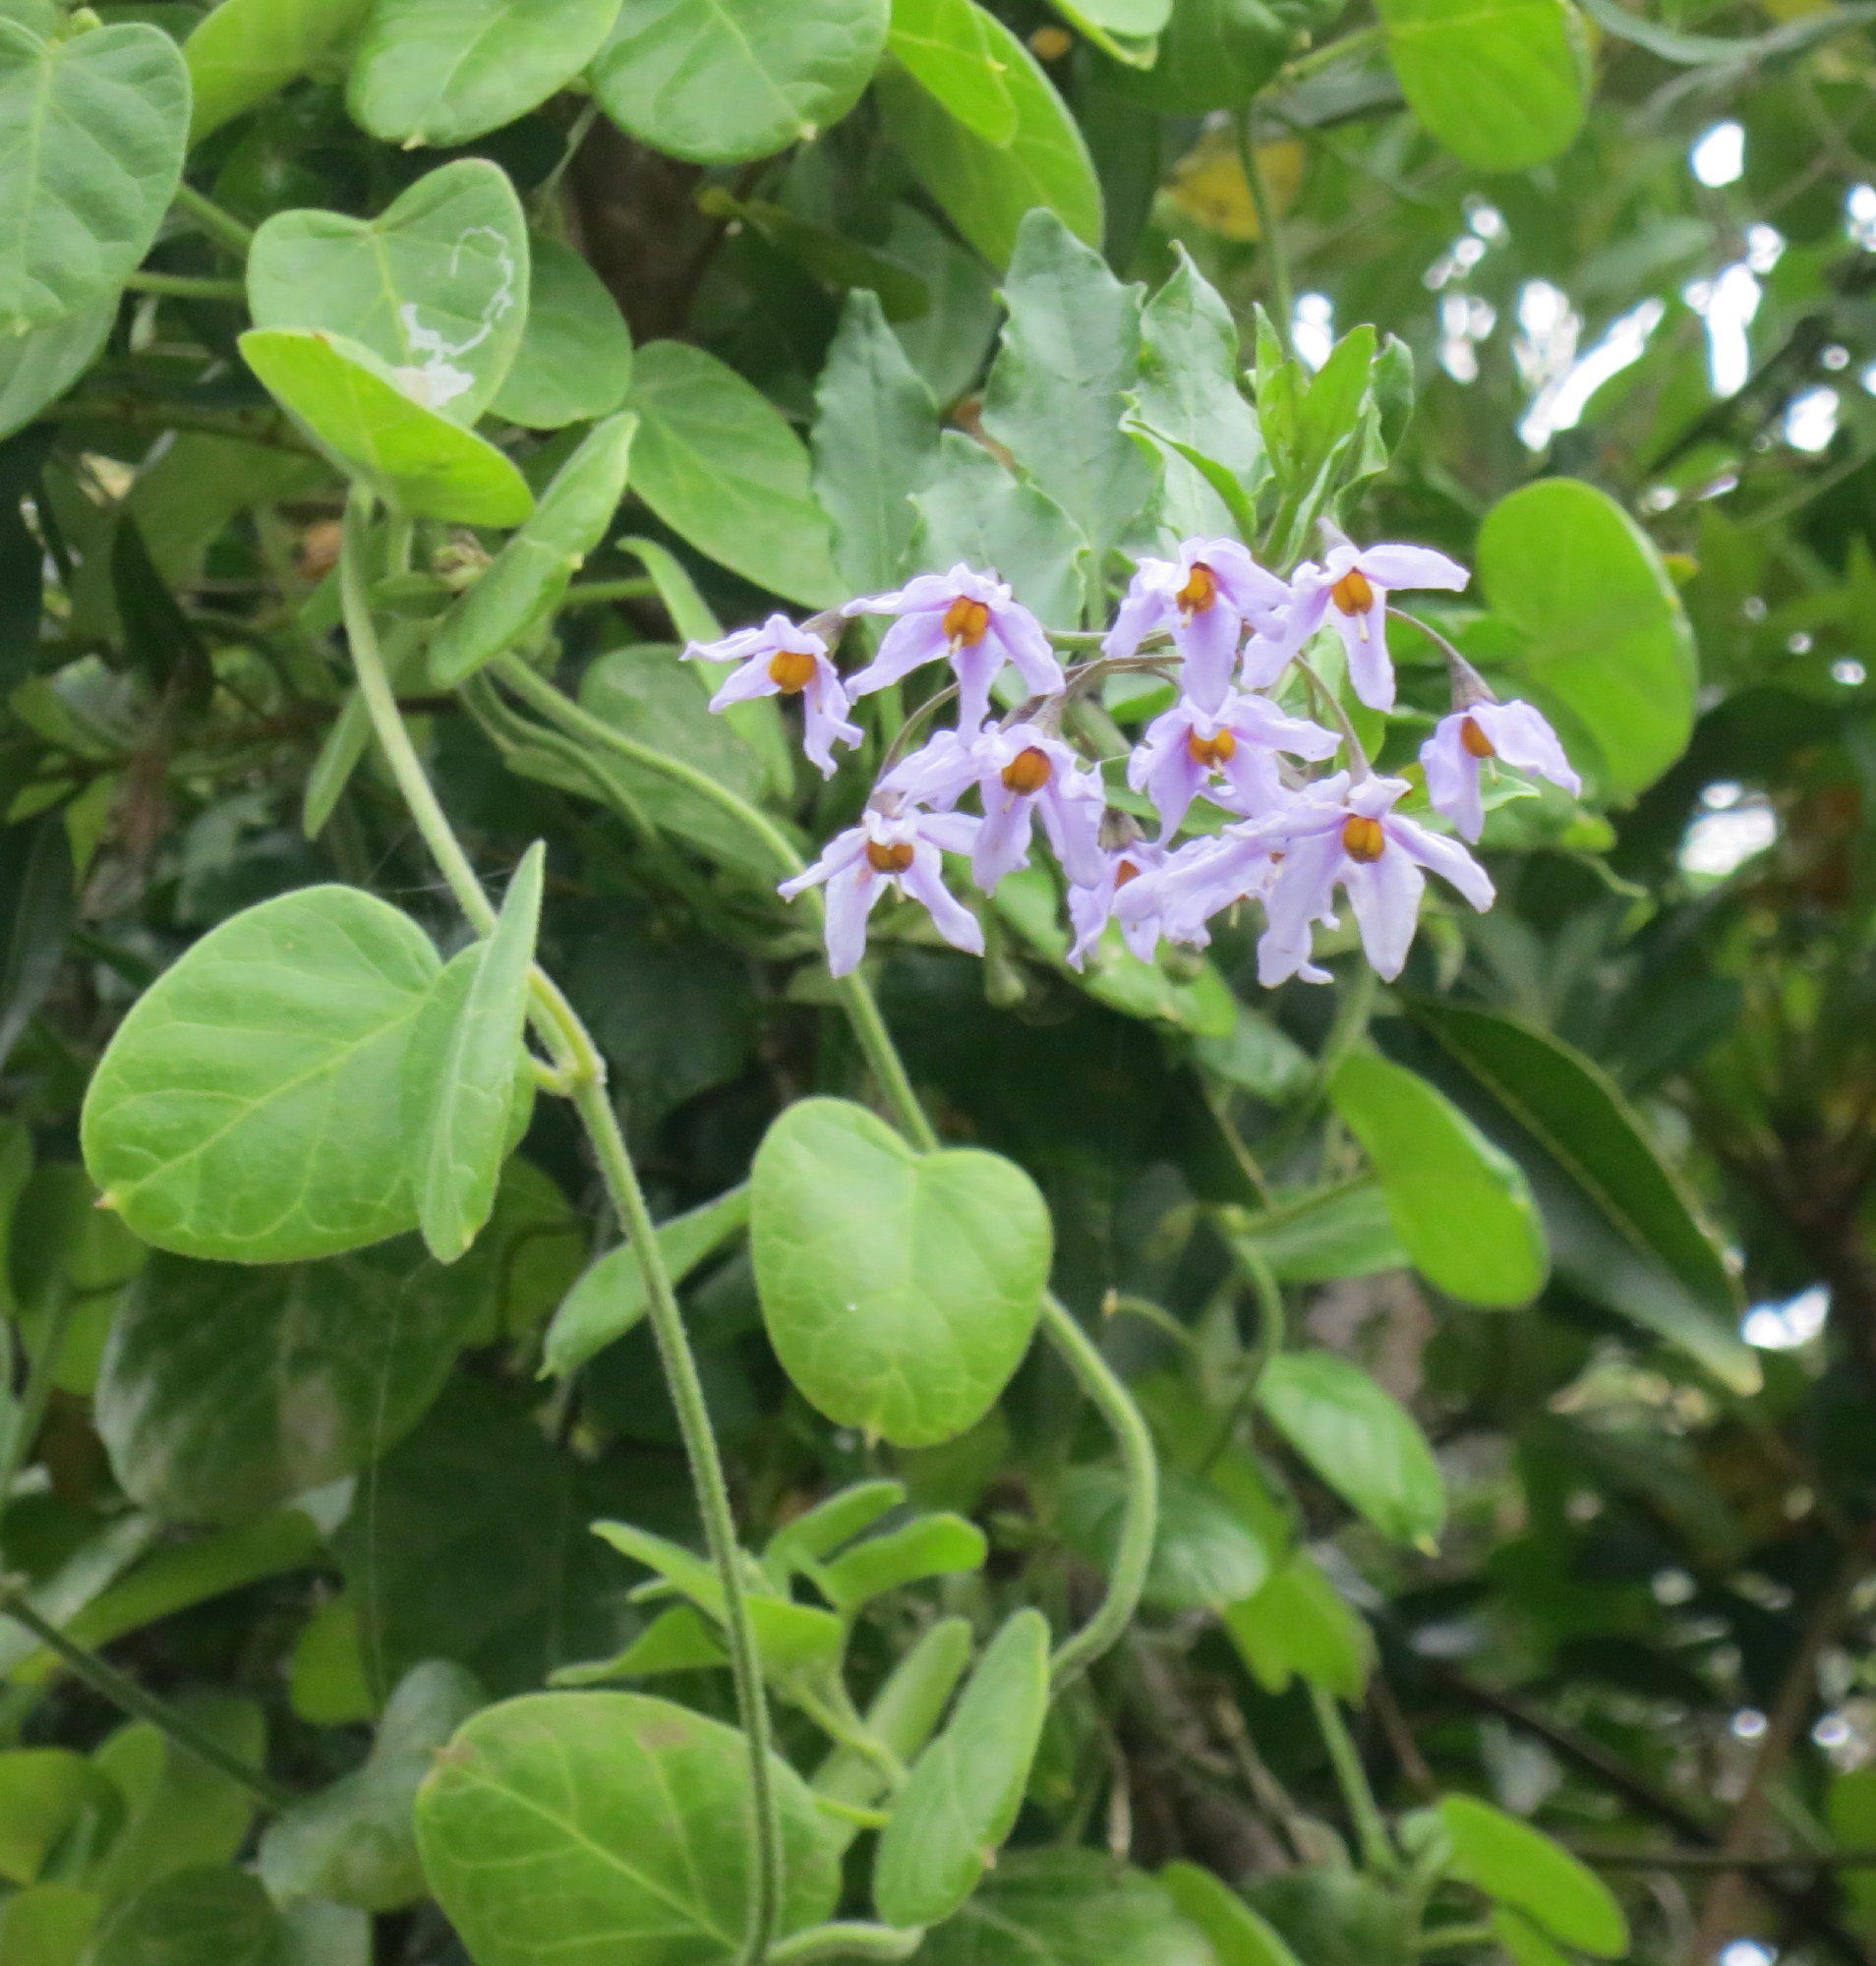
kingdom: Plantae
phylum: Tracheophyta
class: Magnoliopsida
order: Solanales
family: Solanaceae
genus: Solanum
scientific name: Solanum africanum
